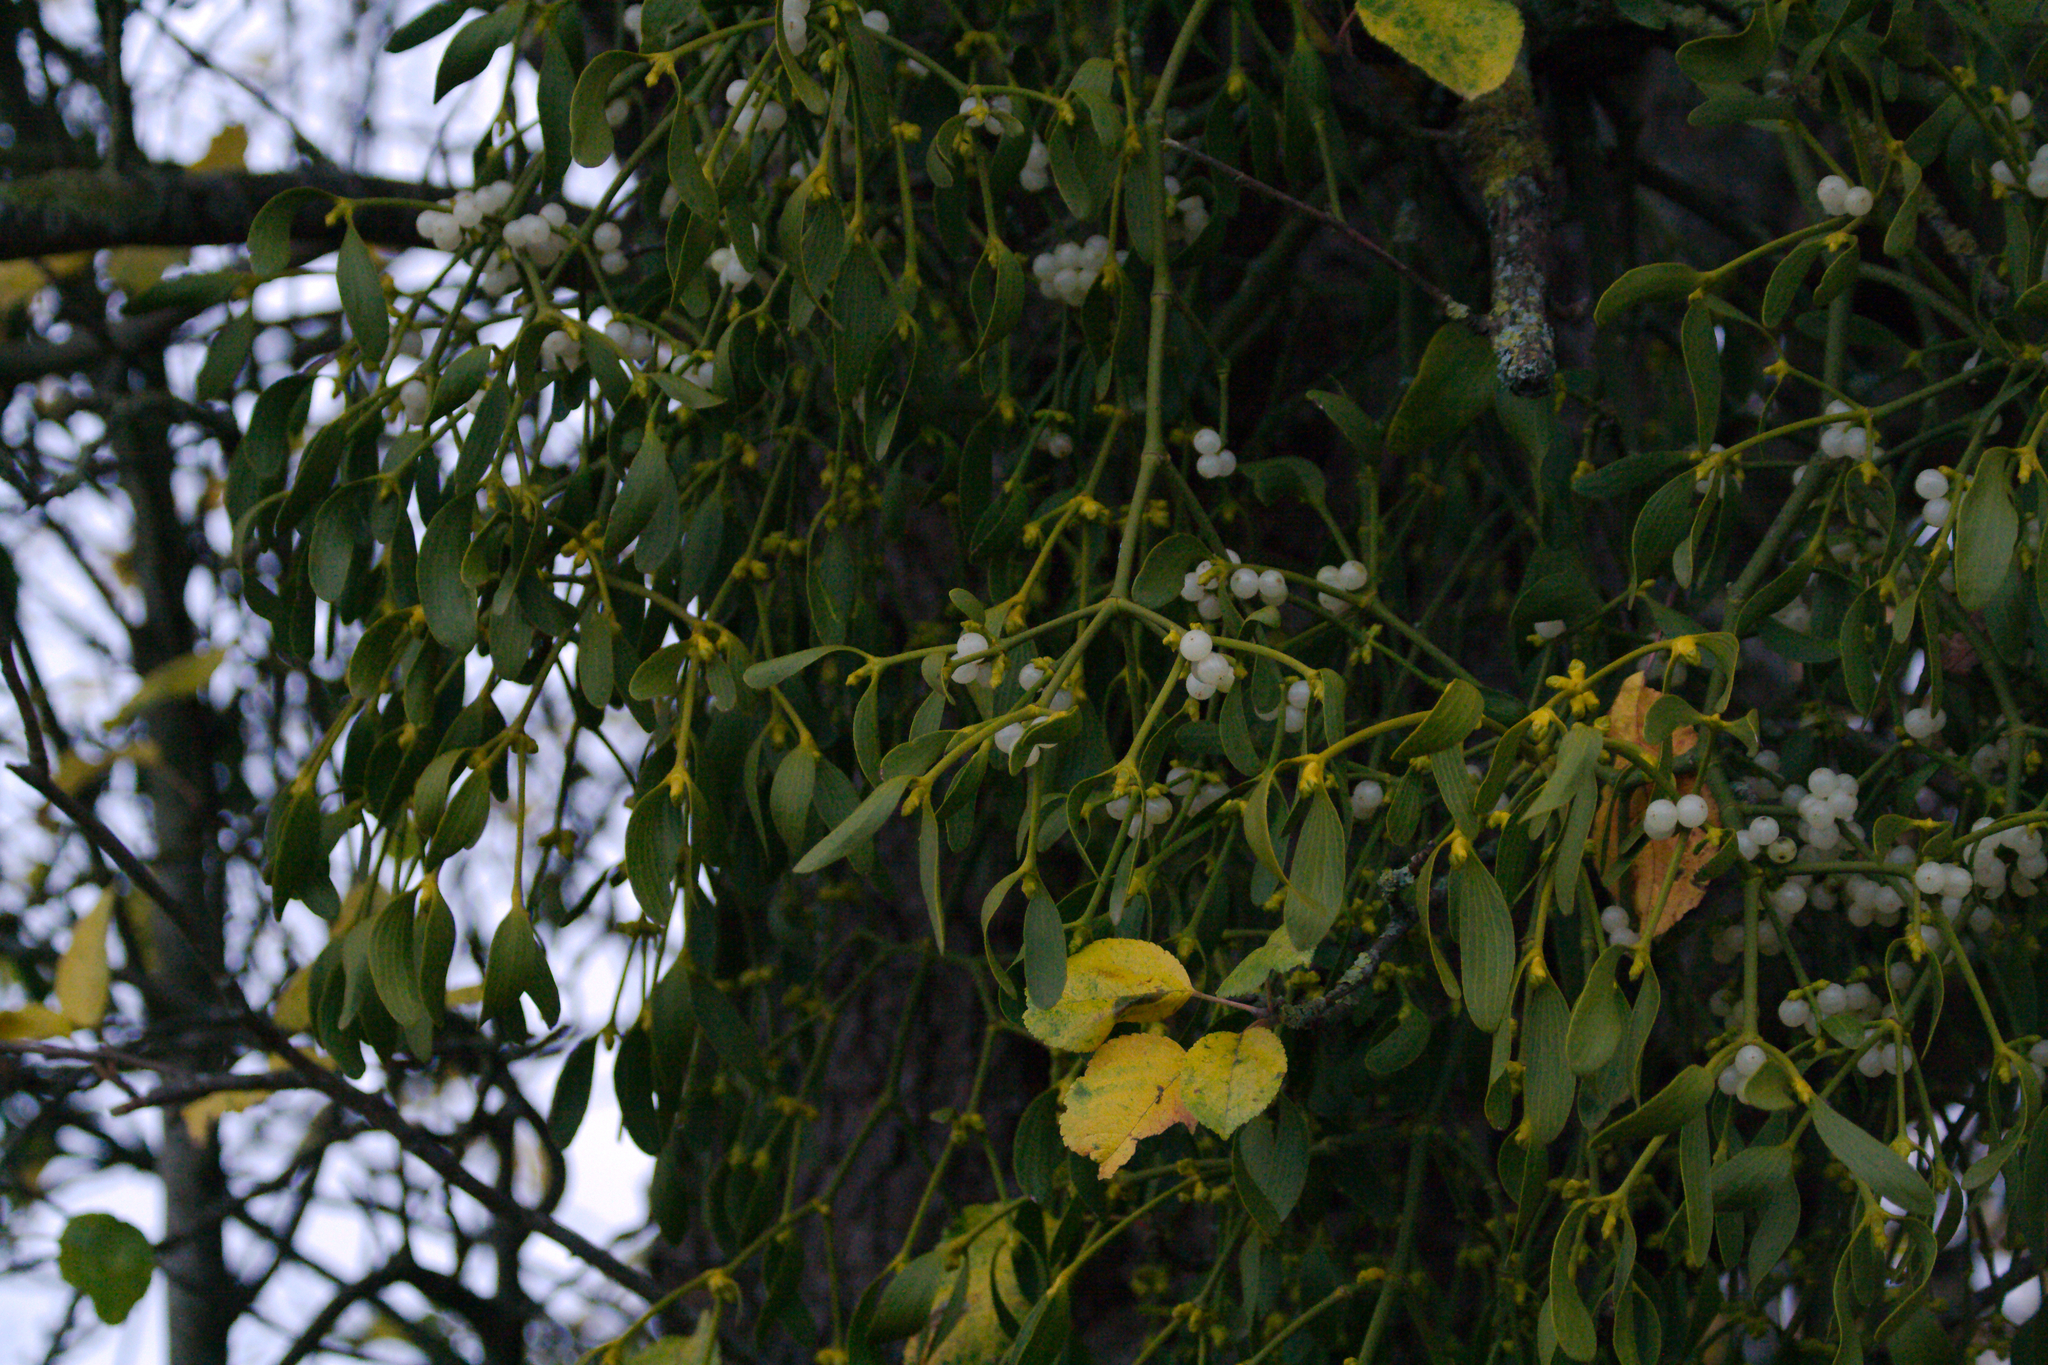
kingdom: Plantae
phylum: Tracheophyta
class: Magnoliopsida
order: Santalales
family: Viscaceae
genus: Viscum
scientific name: Viscum album
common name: Mistletoe
